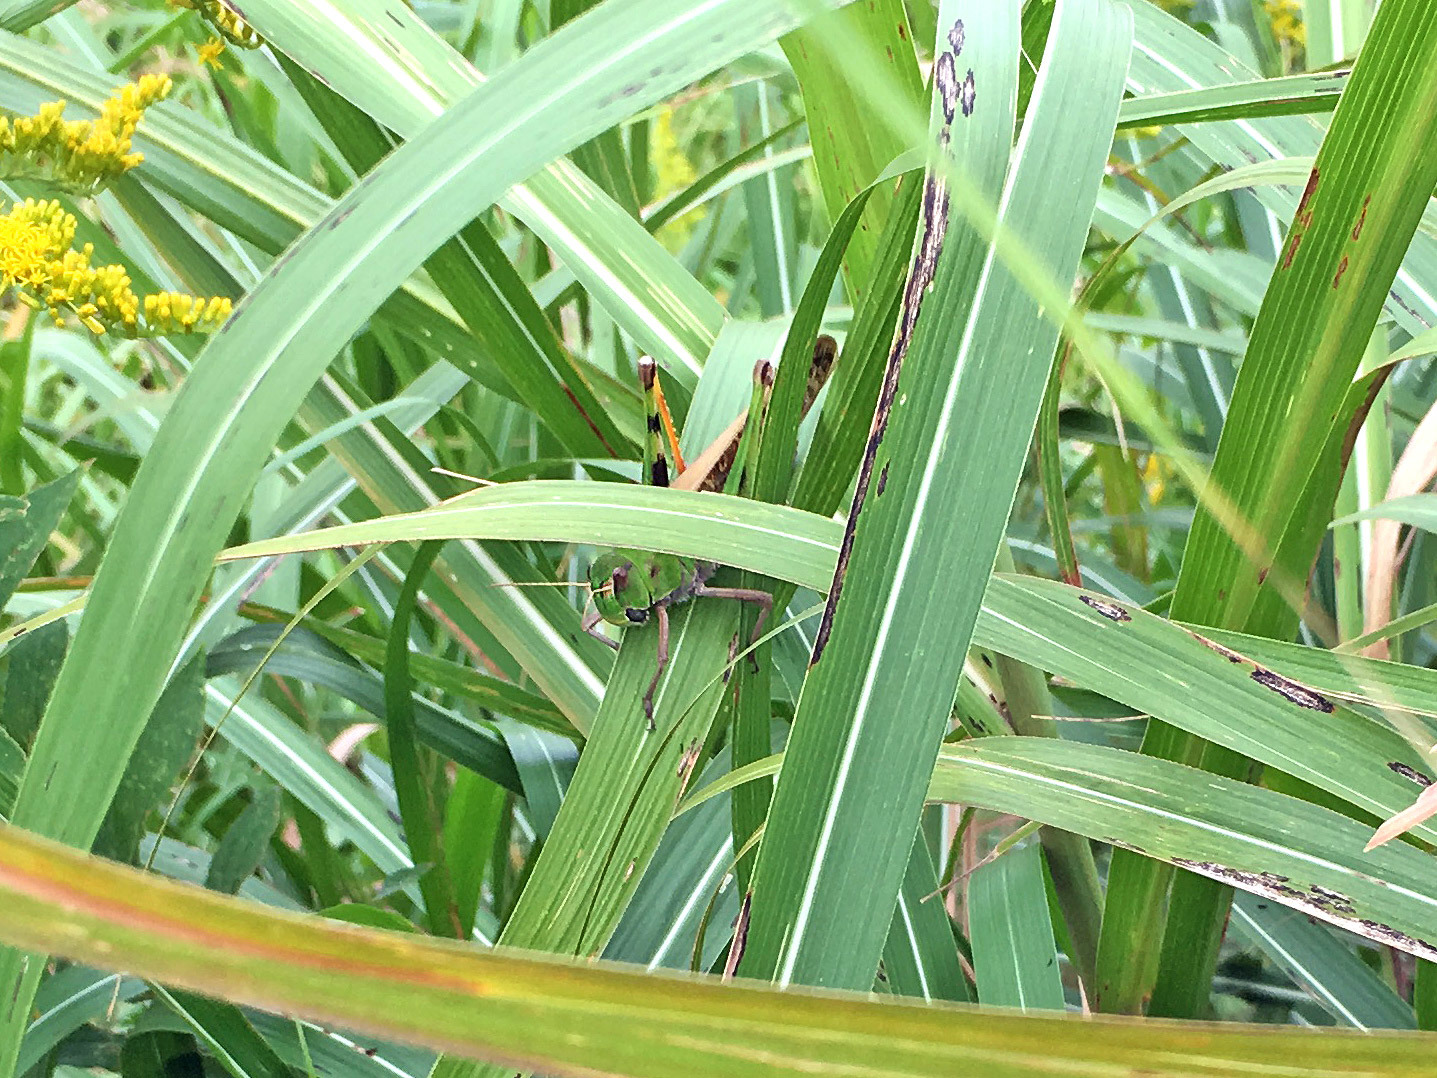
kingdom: Animalia
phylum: Arthropoda
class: Insecta
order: Orthoptera
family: Acrididae
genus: Locusta
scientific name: Locusta migratoria
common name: Migratory locust
